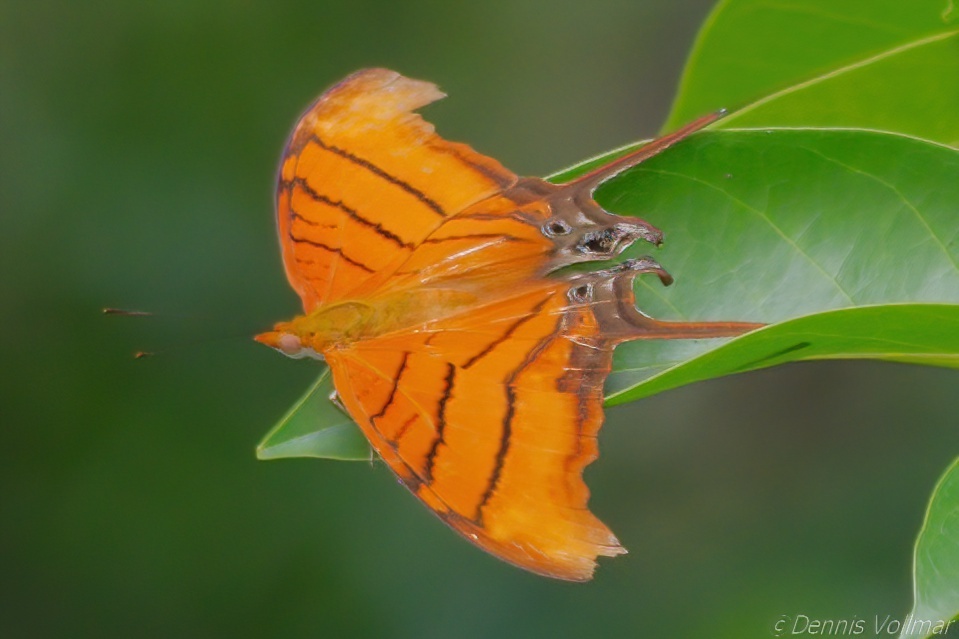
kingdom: Animalia
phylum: Arthropoda
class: Insecta
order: Lepidoptera
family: Nymphalidae
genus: Marpesia
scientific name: Marpesia petreus
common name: Red dagger wing
